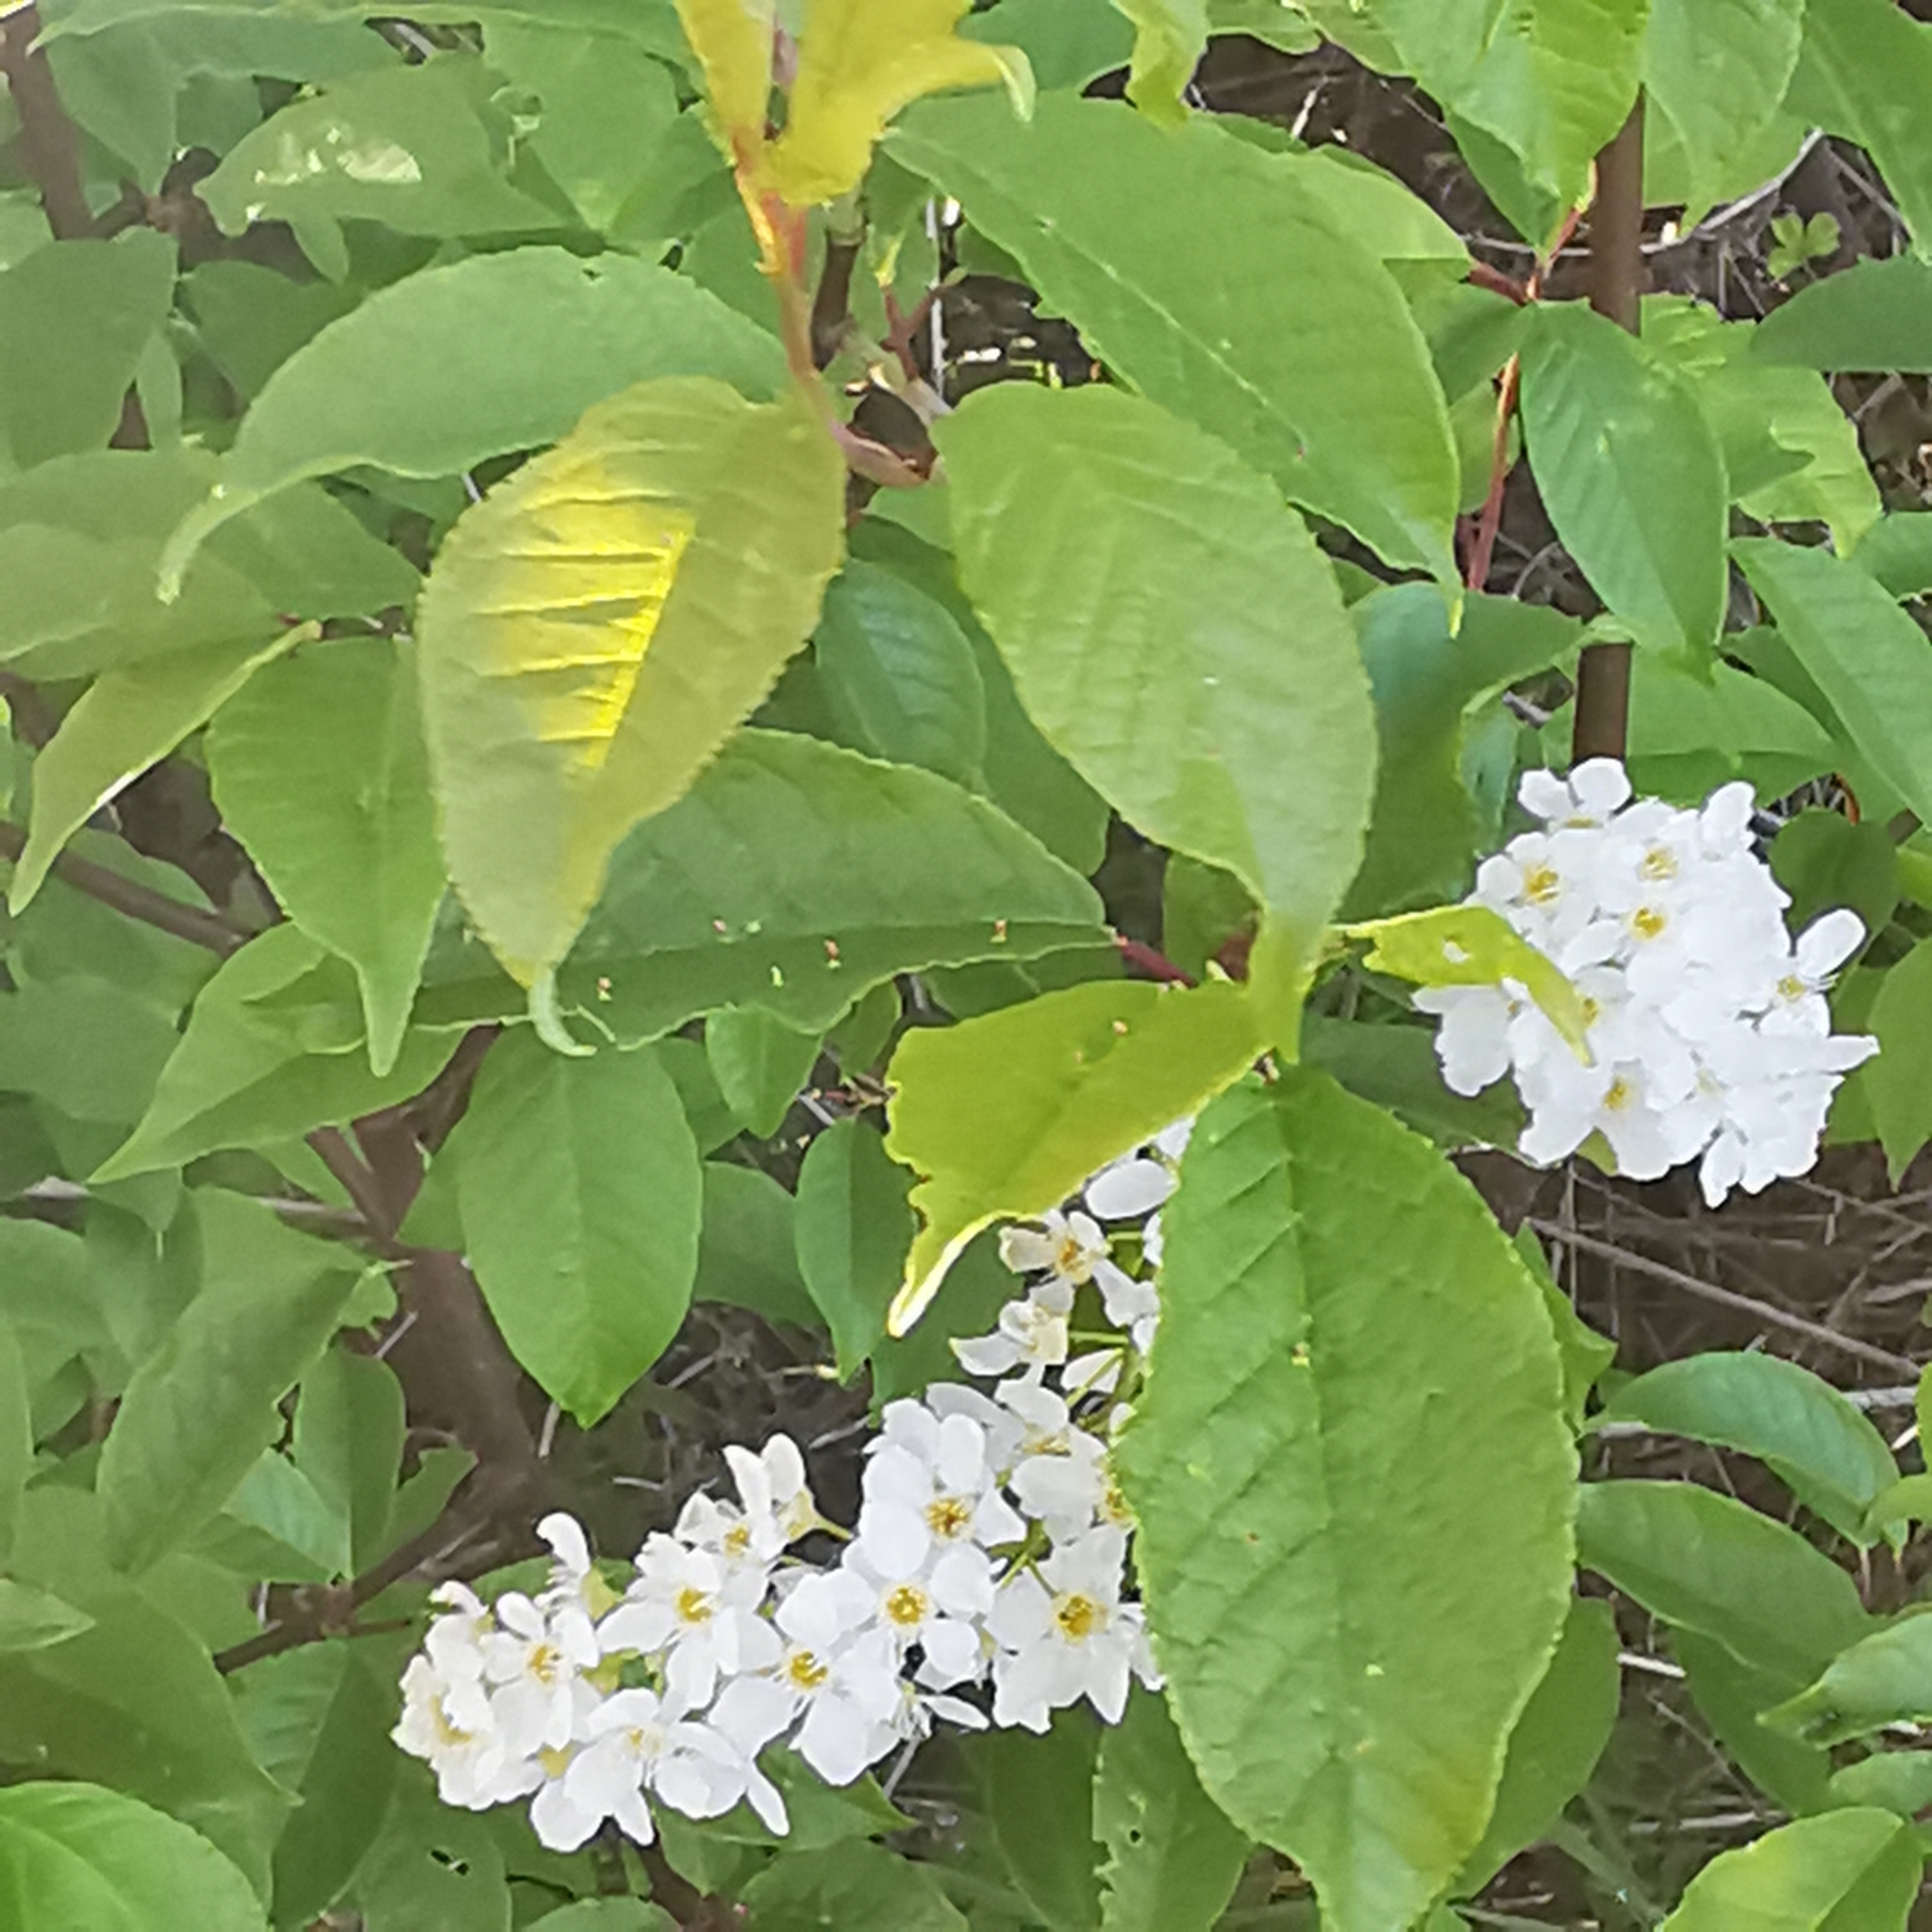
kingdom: Plantae
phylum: Tracheophyta
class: Magnoliopsida
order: Rosales
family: Rosaceae
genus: Prunus
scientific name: Prunus padus
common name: Bird cherry
